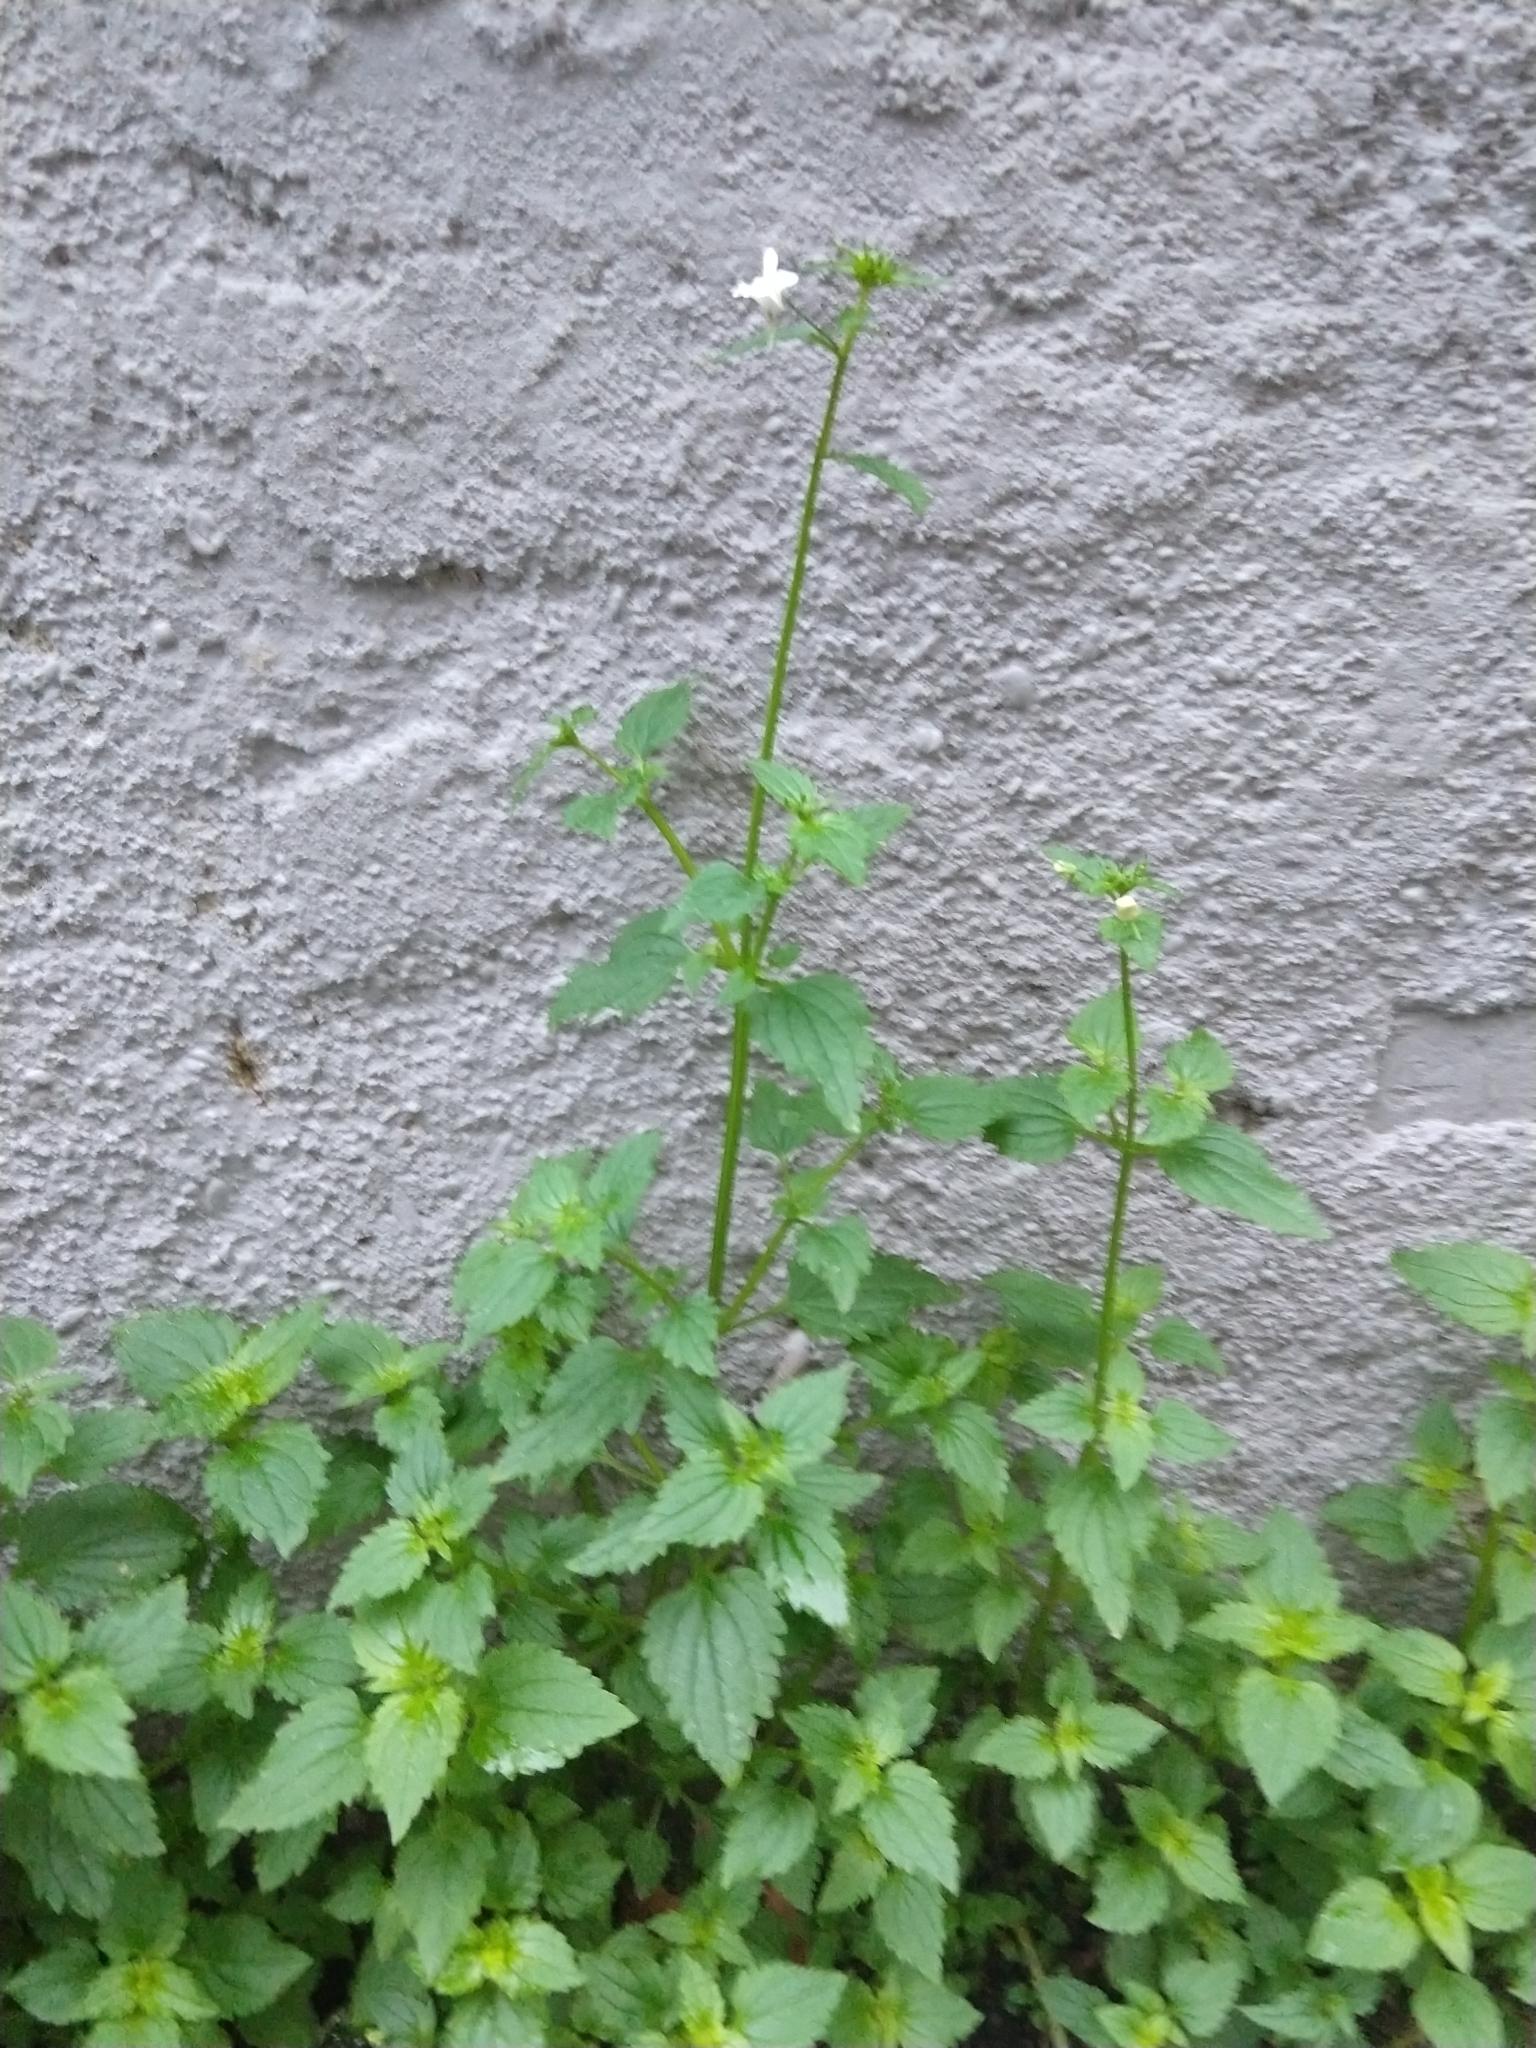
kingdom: Plantae
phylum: Tracheophyta
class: Magnoliopsida
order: Lamiales
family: Scrophulariaceae
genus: Nemesia
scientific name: Nemesia floribunda
